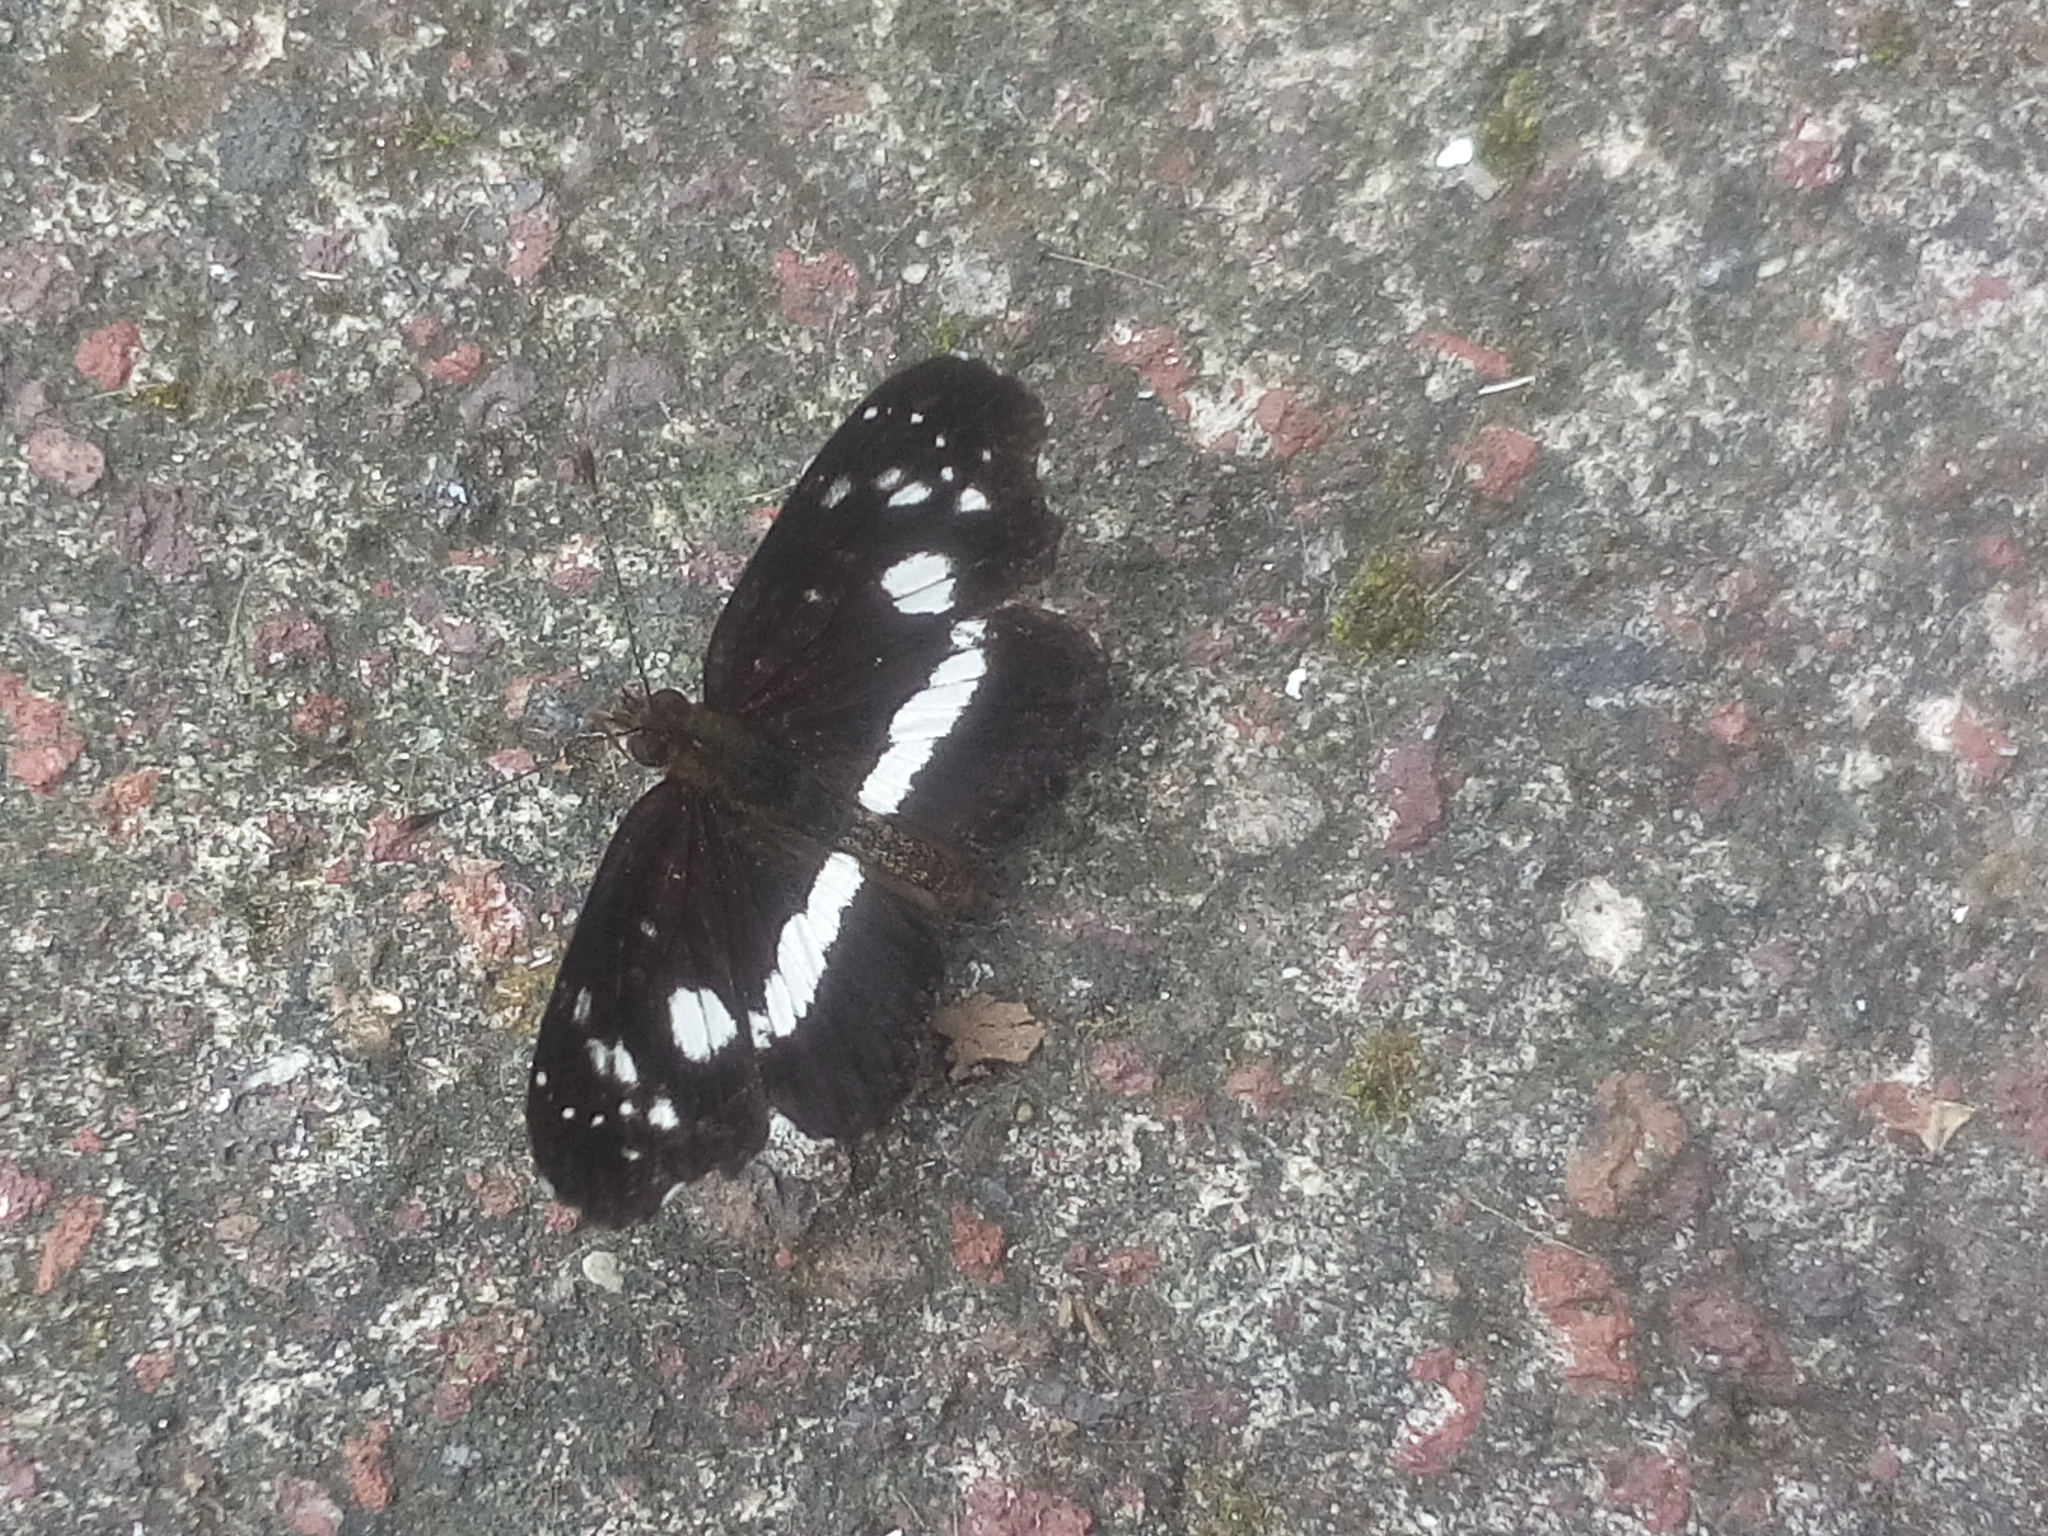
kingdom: Animalia
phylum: Arthropoda
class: Insecta
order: Lepidoptera
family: Nymphalidae
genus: Castilia
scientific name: Castilia myia
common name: Mayan crescent
